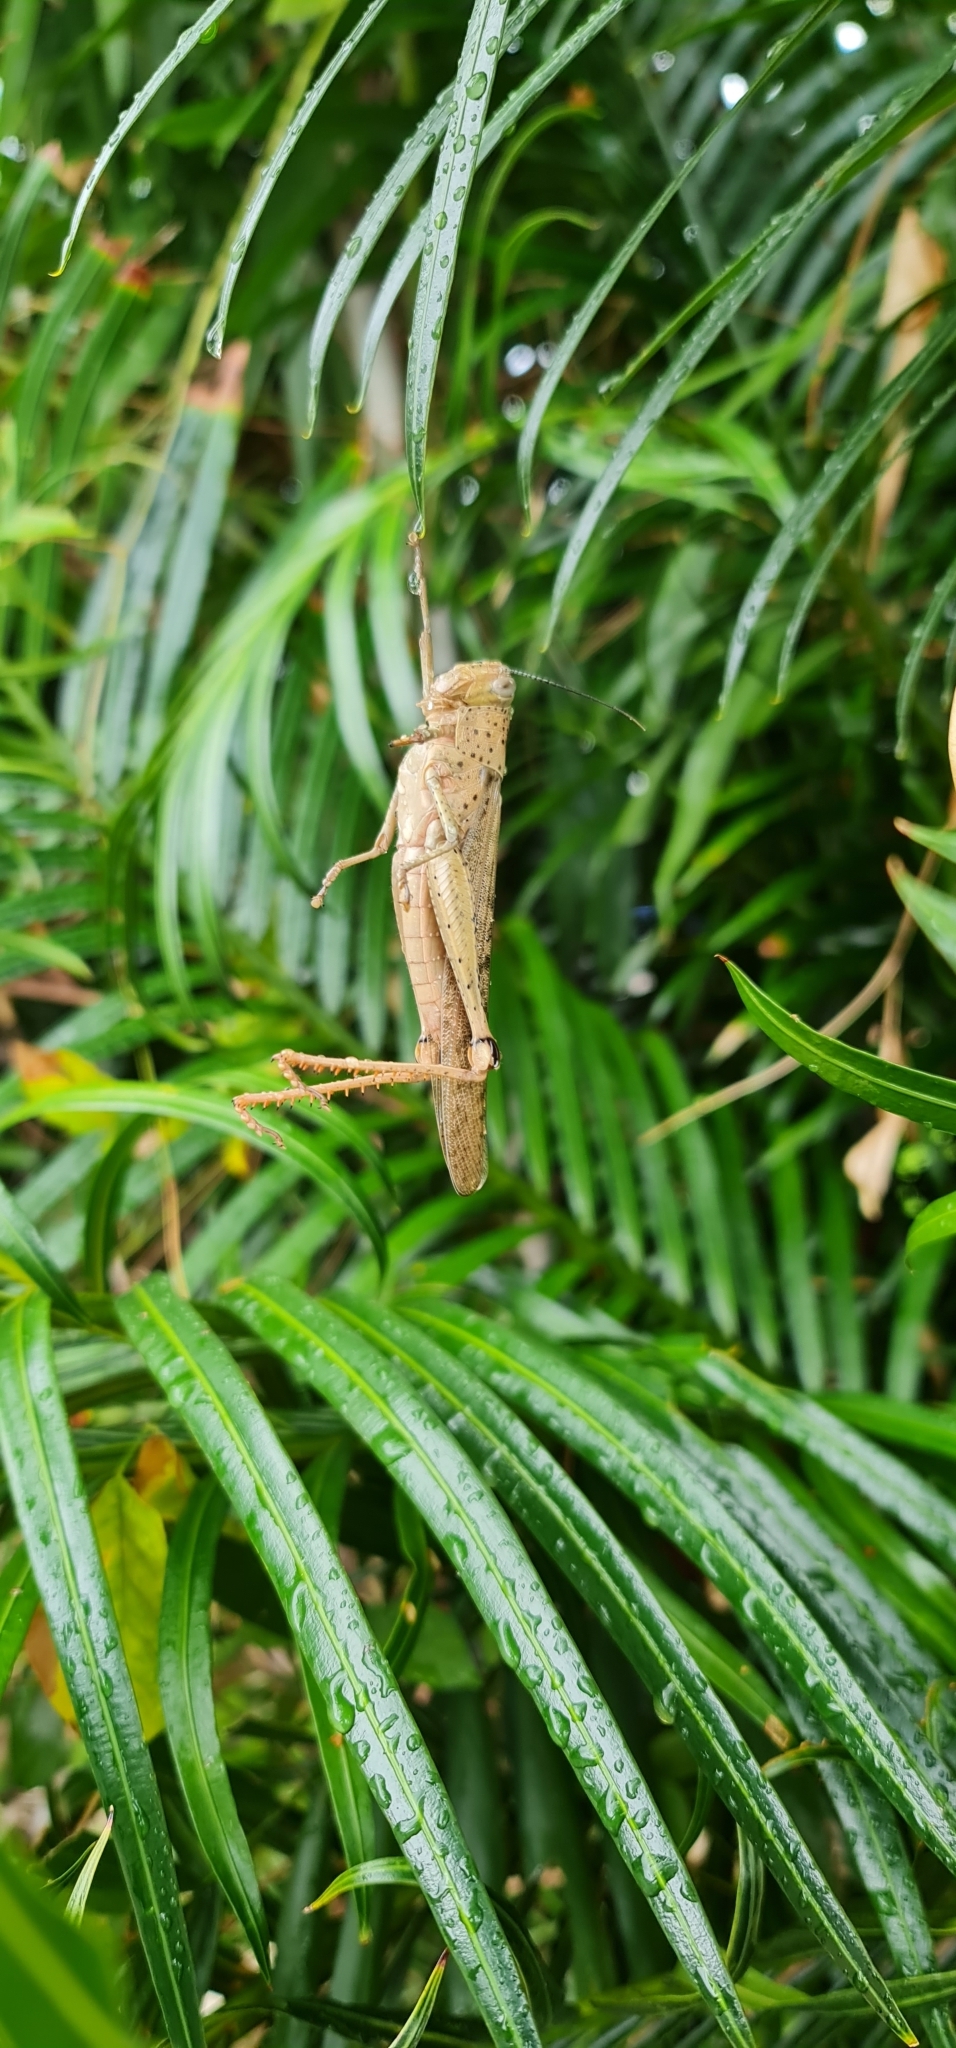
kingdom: Animalia
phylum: Arthropoda
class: Insecta
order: Orthoptera
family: Acrididae
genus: Valanga
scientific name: Valanga irregularis
